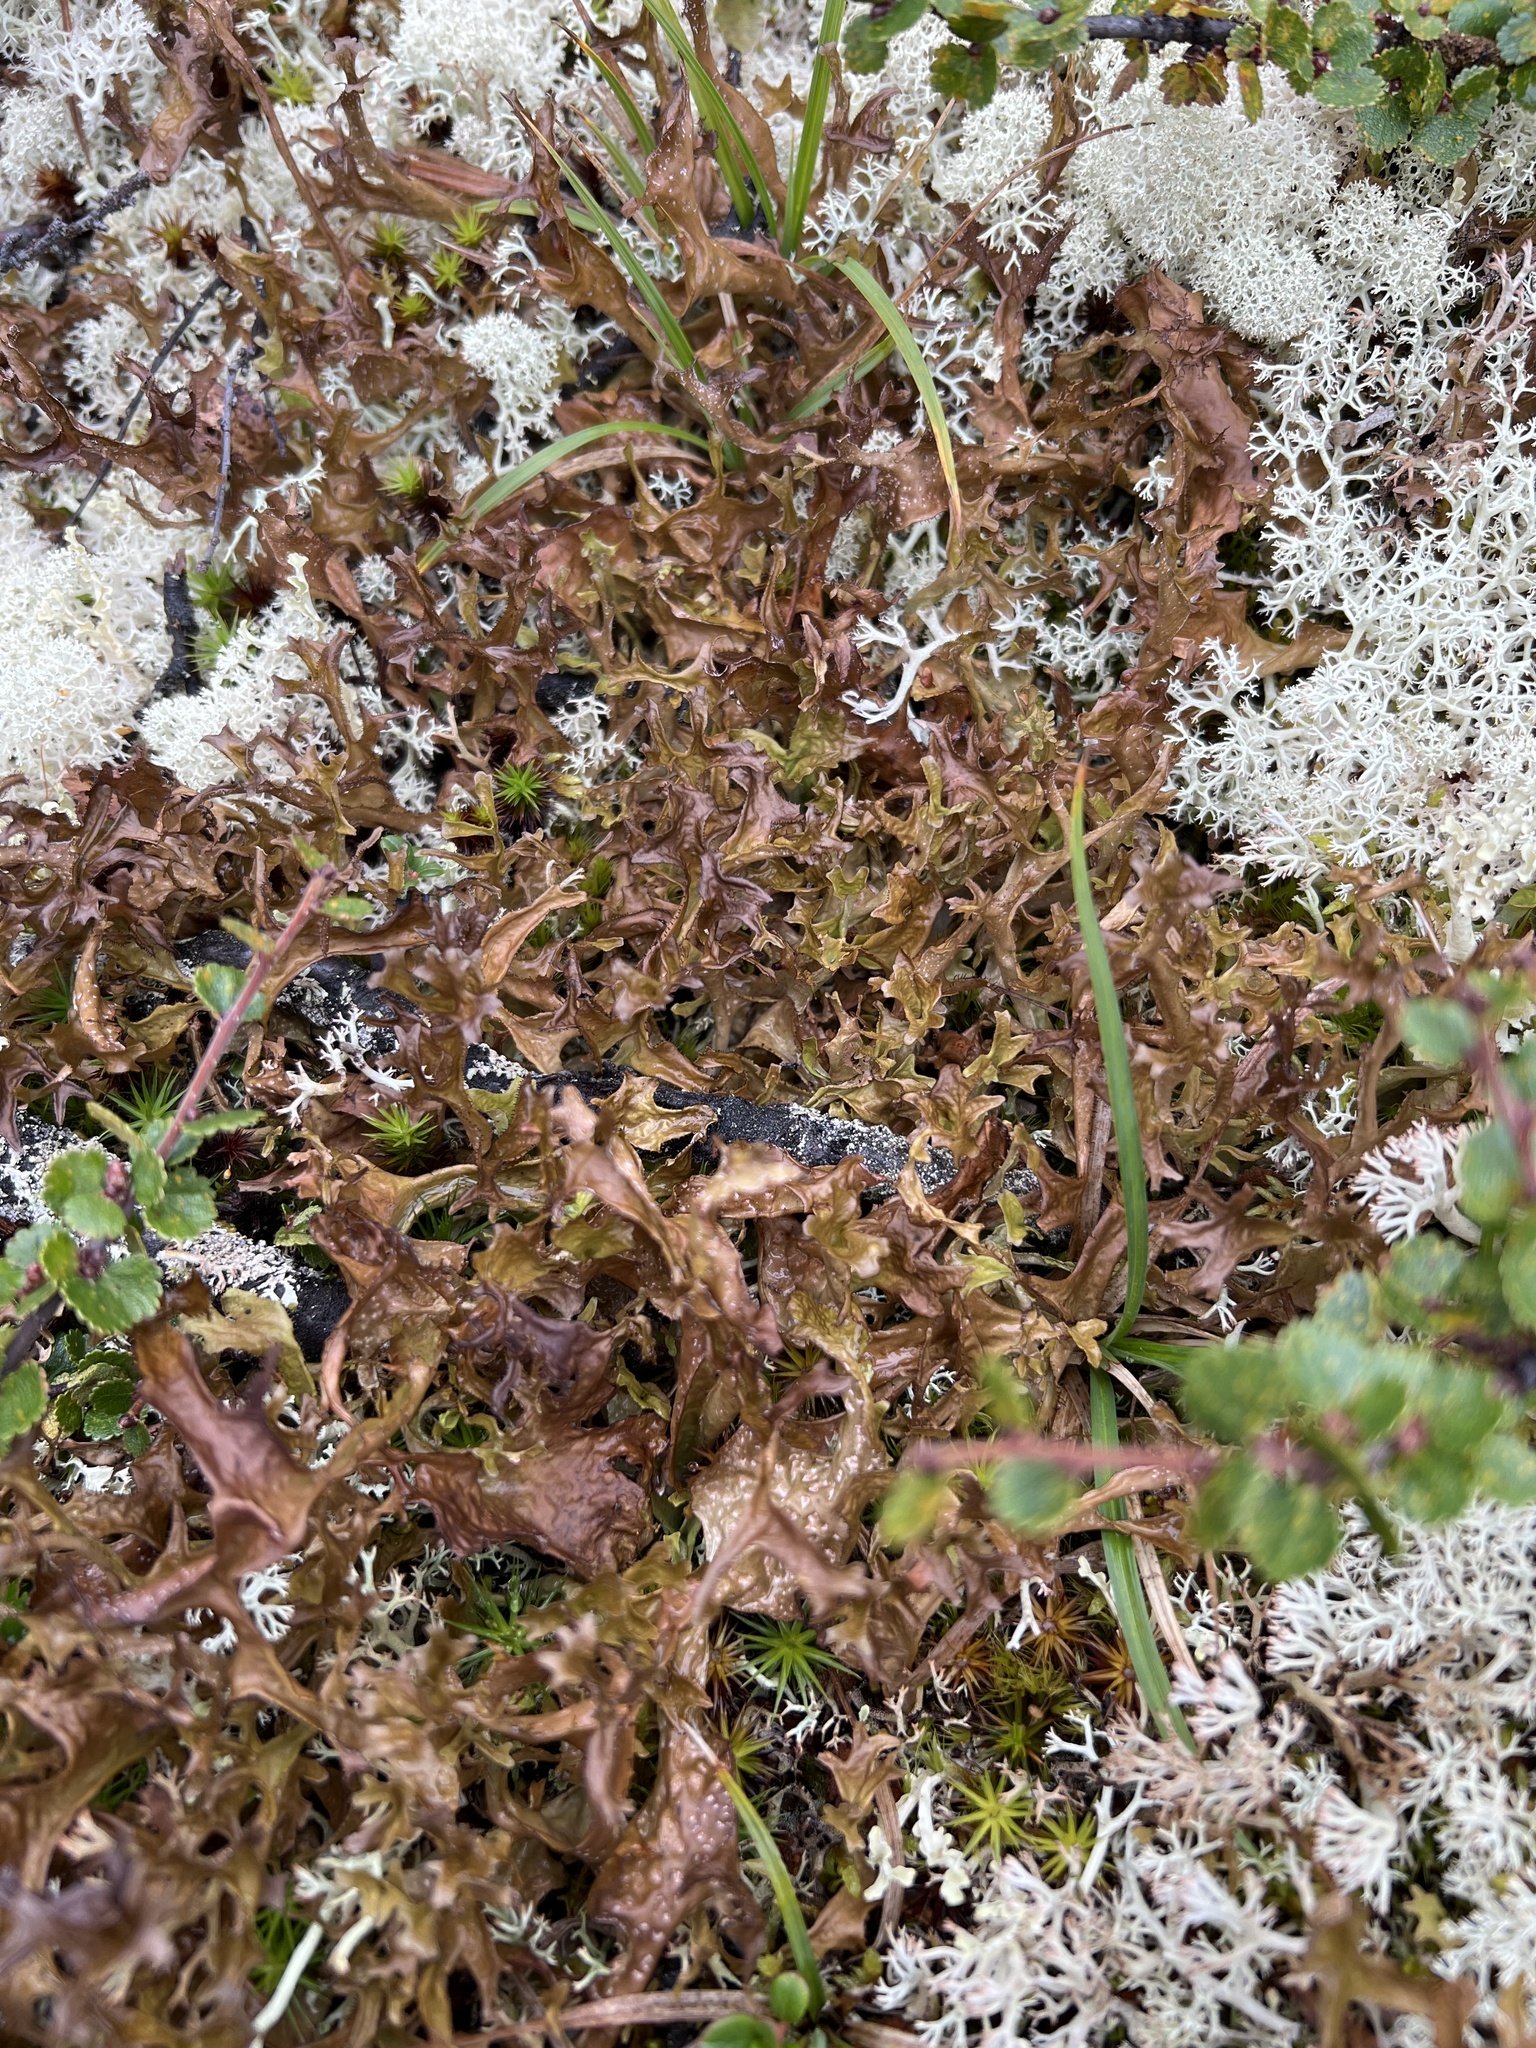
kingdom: Fungi
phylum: Ascomycota
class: Lecanoromycetes
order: Lecanorales
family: Parmeliaceae
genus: Cetraria
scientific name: Cetraria islandica
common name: Iceland lichen
